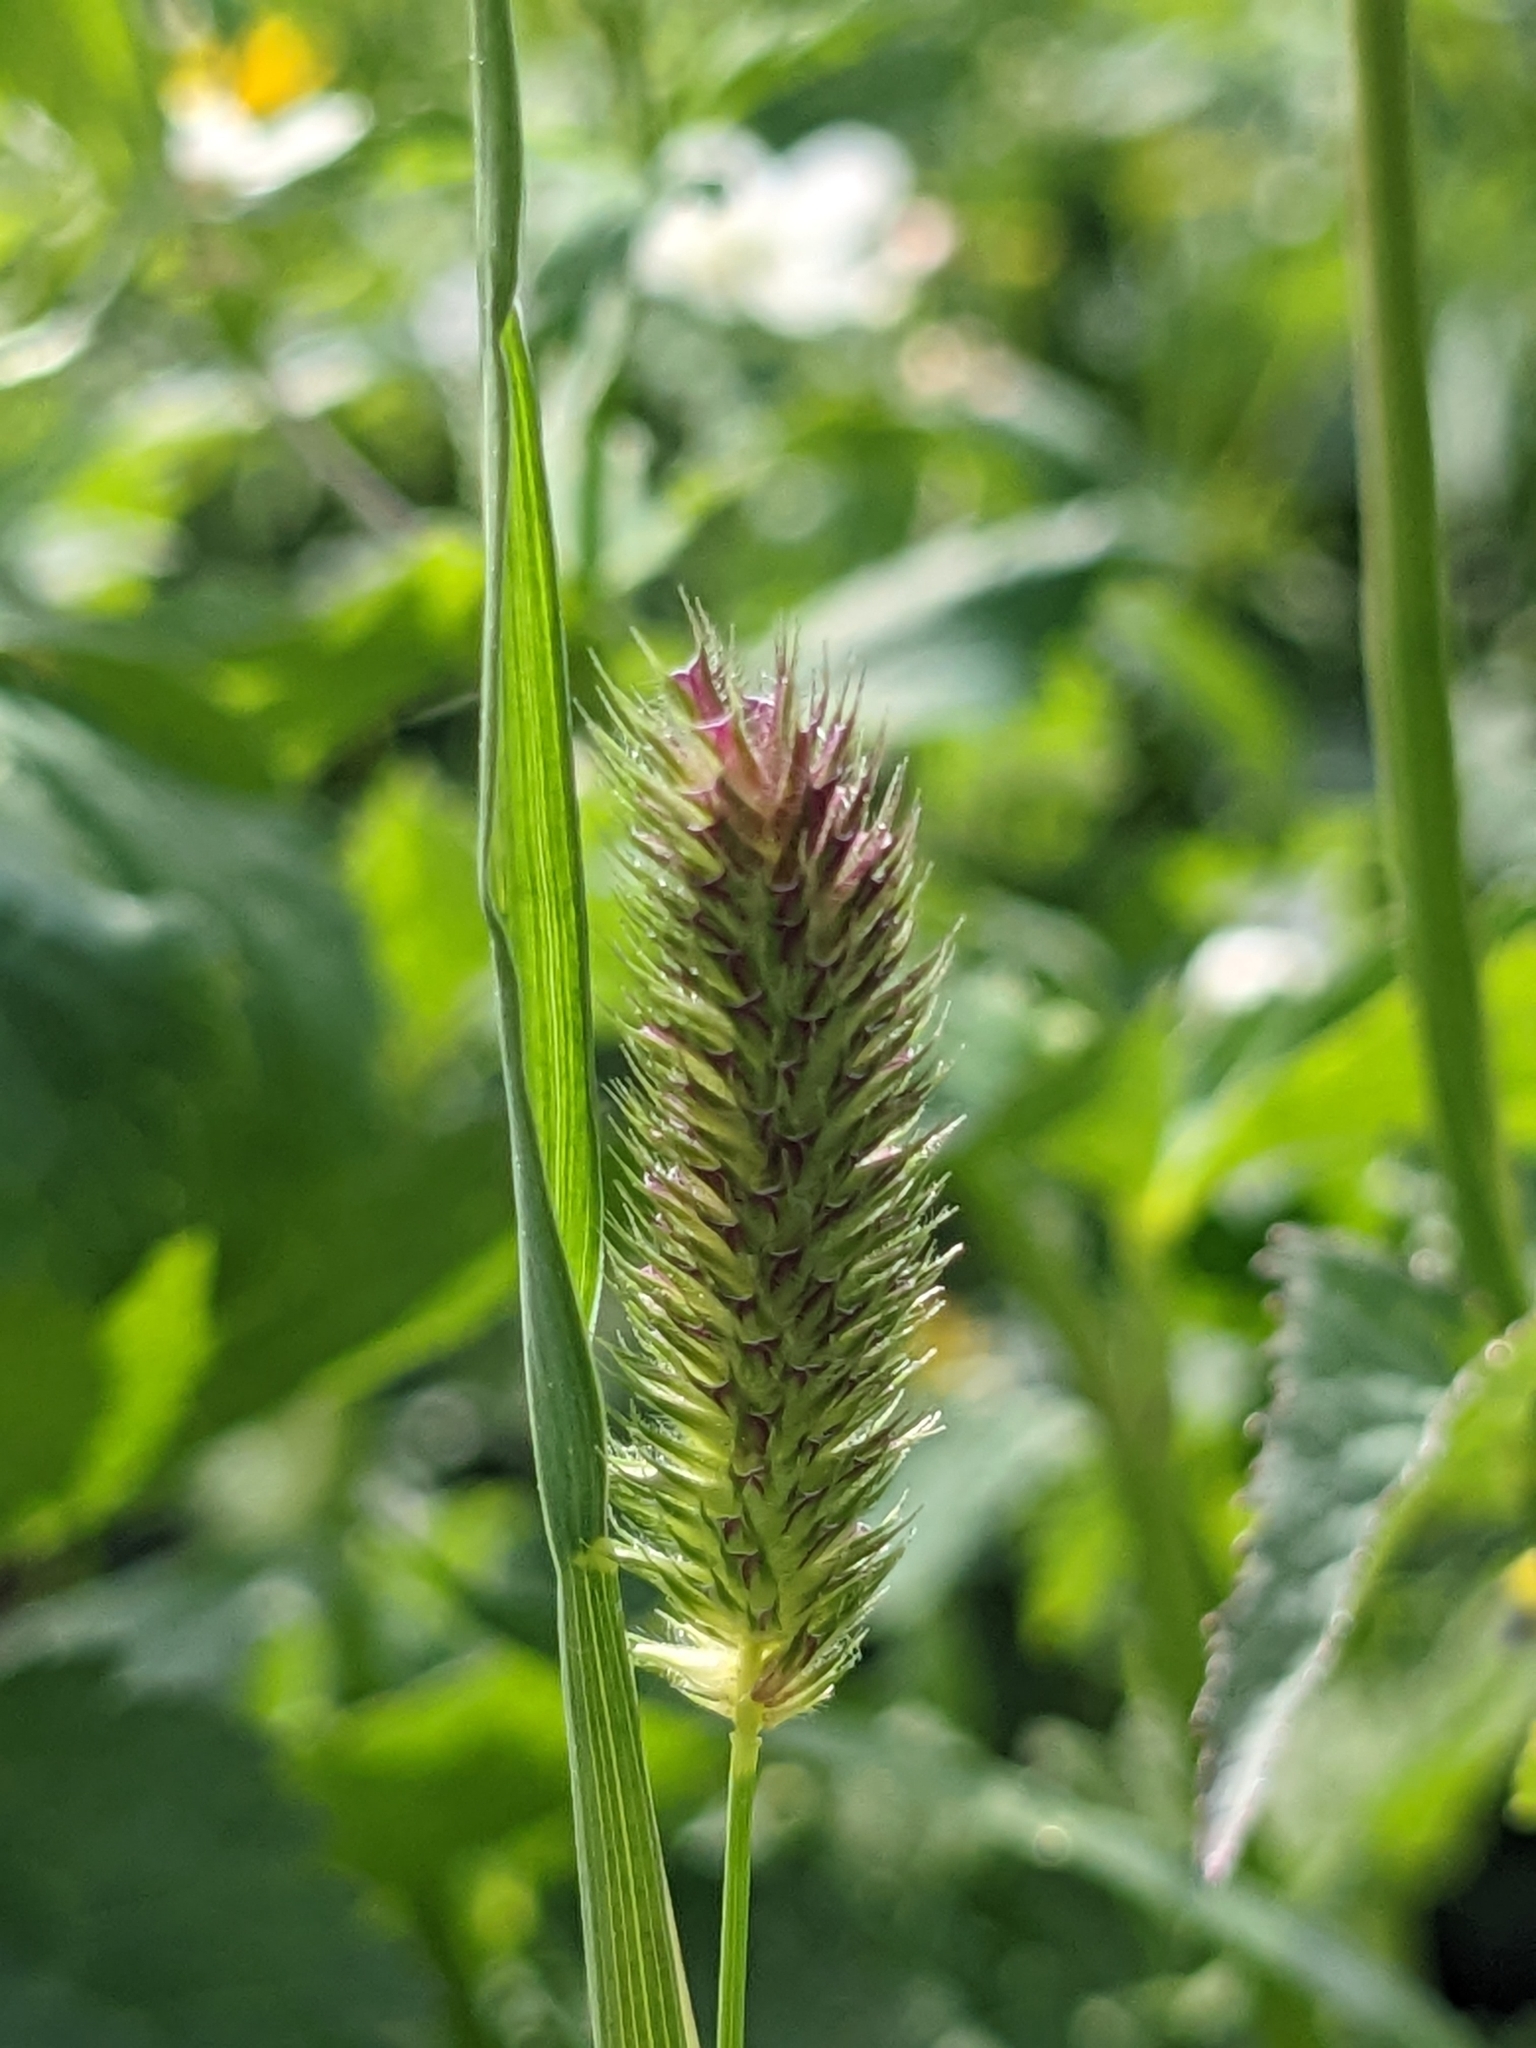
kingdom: Plantae
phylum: Tracheophyta
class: Liliopsida
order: Poales
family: Poaceae
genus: Phleum
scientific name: Phleum alpinum
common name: Alpine cat's-tail
